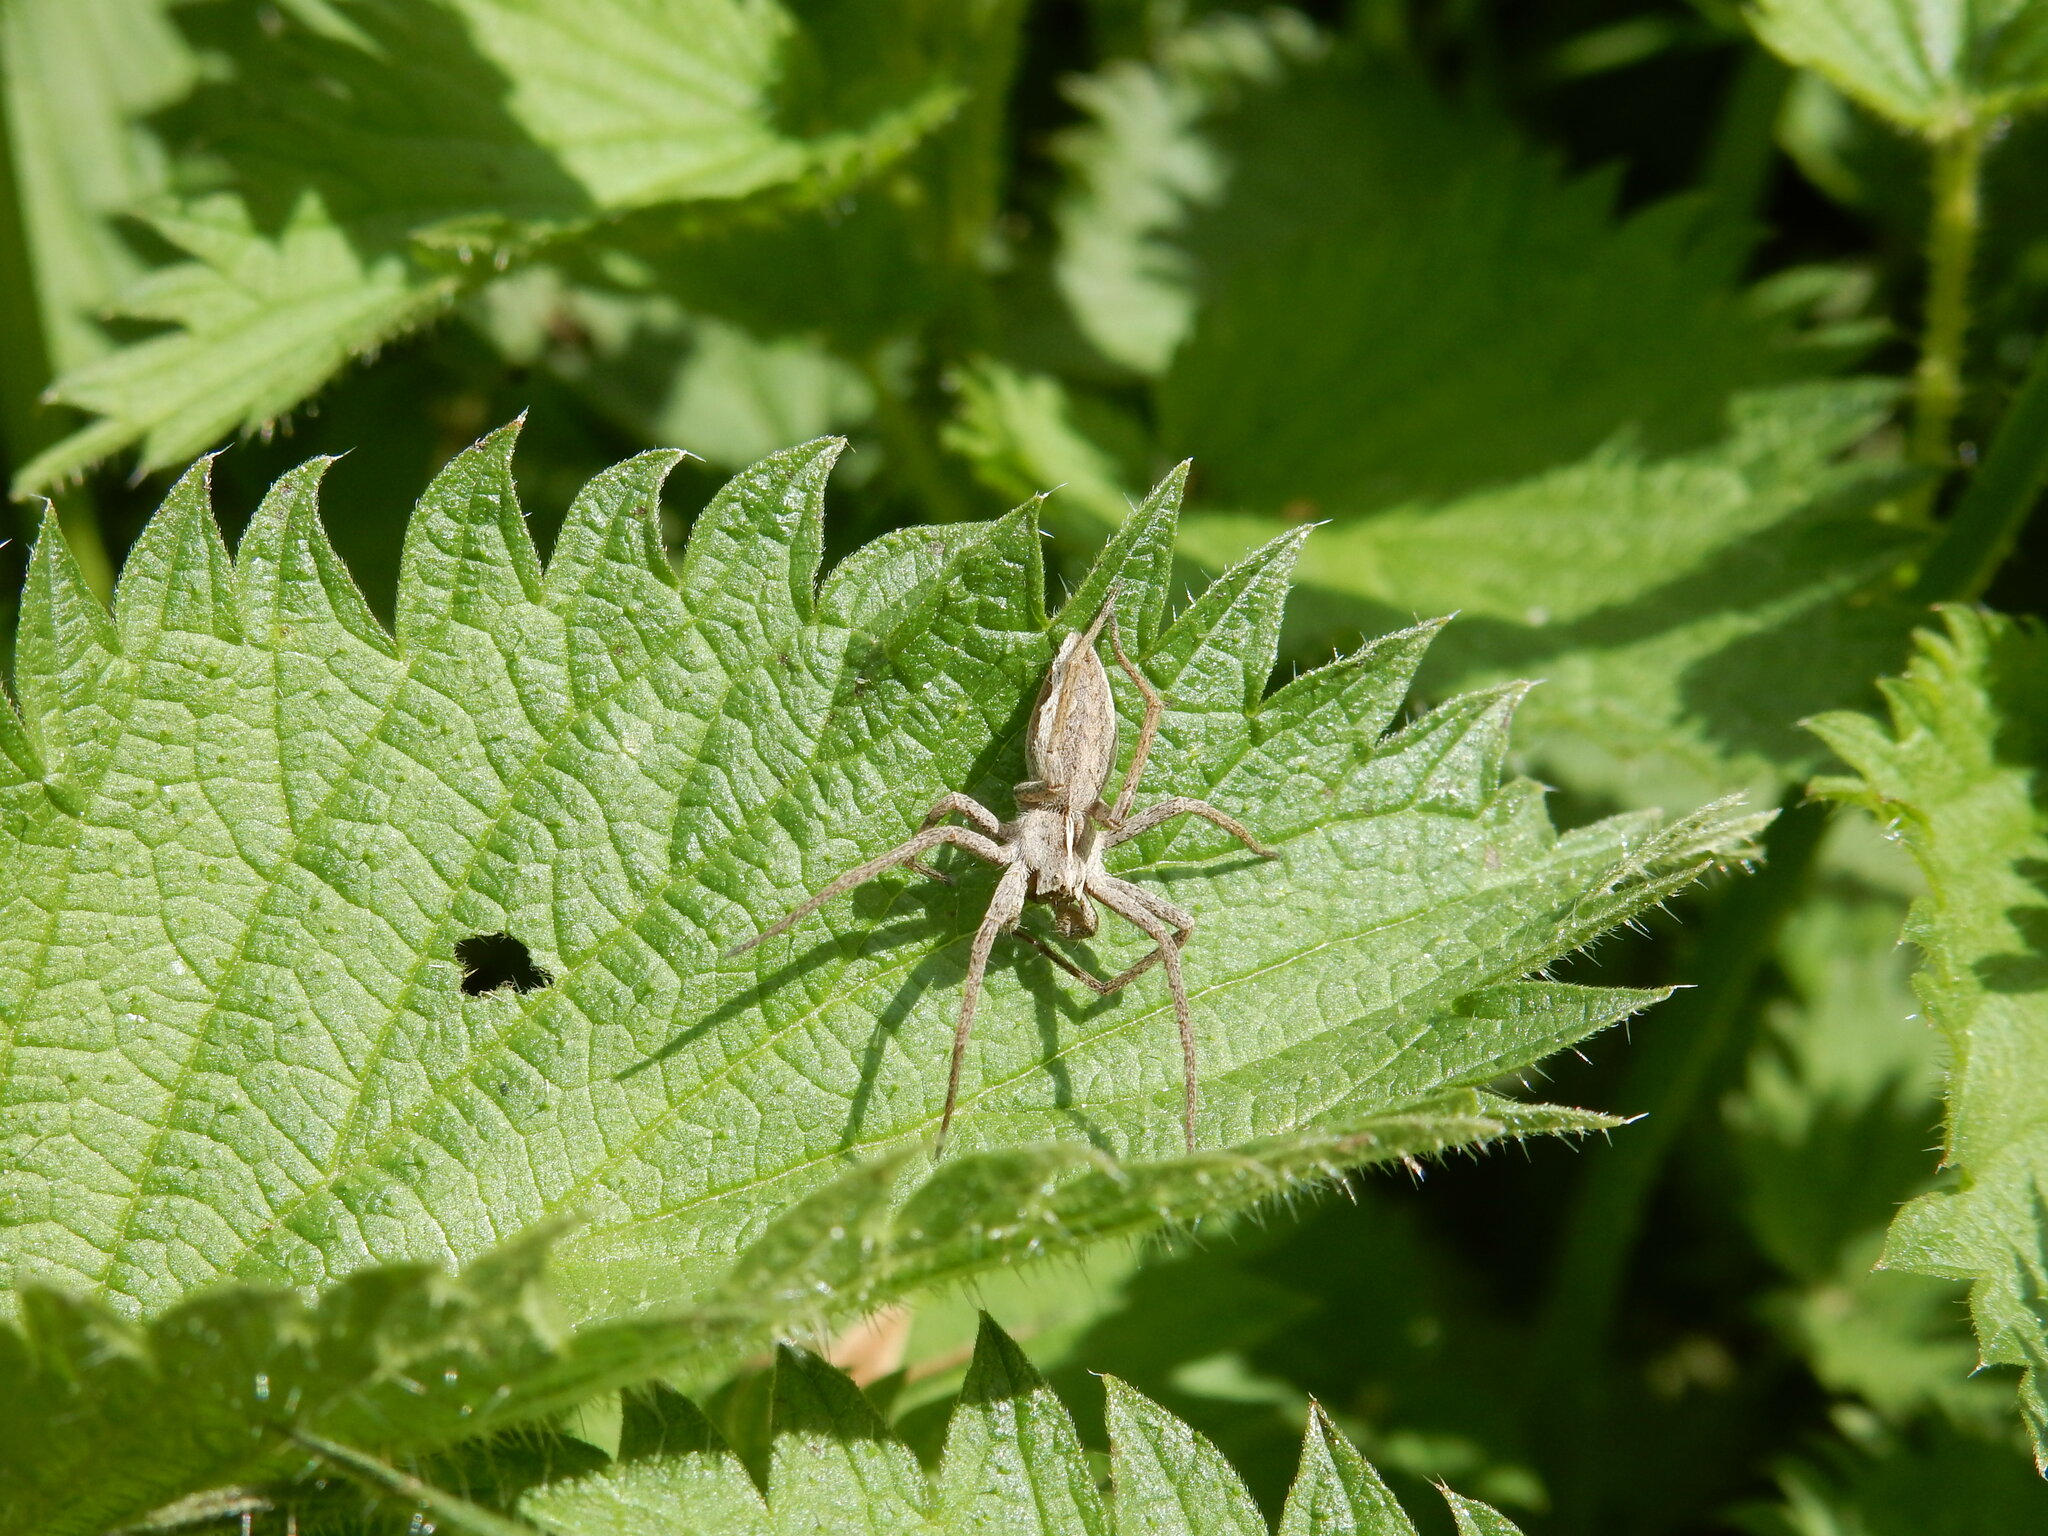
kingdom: Animalia
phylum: Arthropoda
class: Arachnida
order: Araneae
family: Pisauridae
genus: Pisaura
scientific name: Pisaura mirabilis
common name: Tent spider
